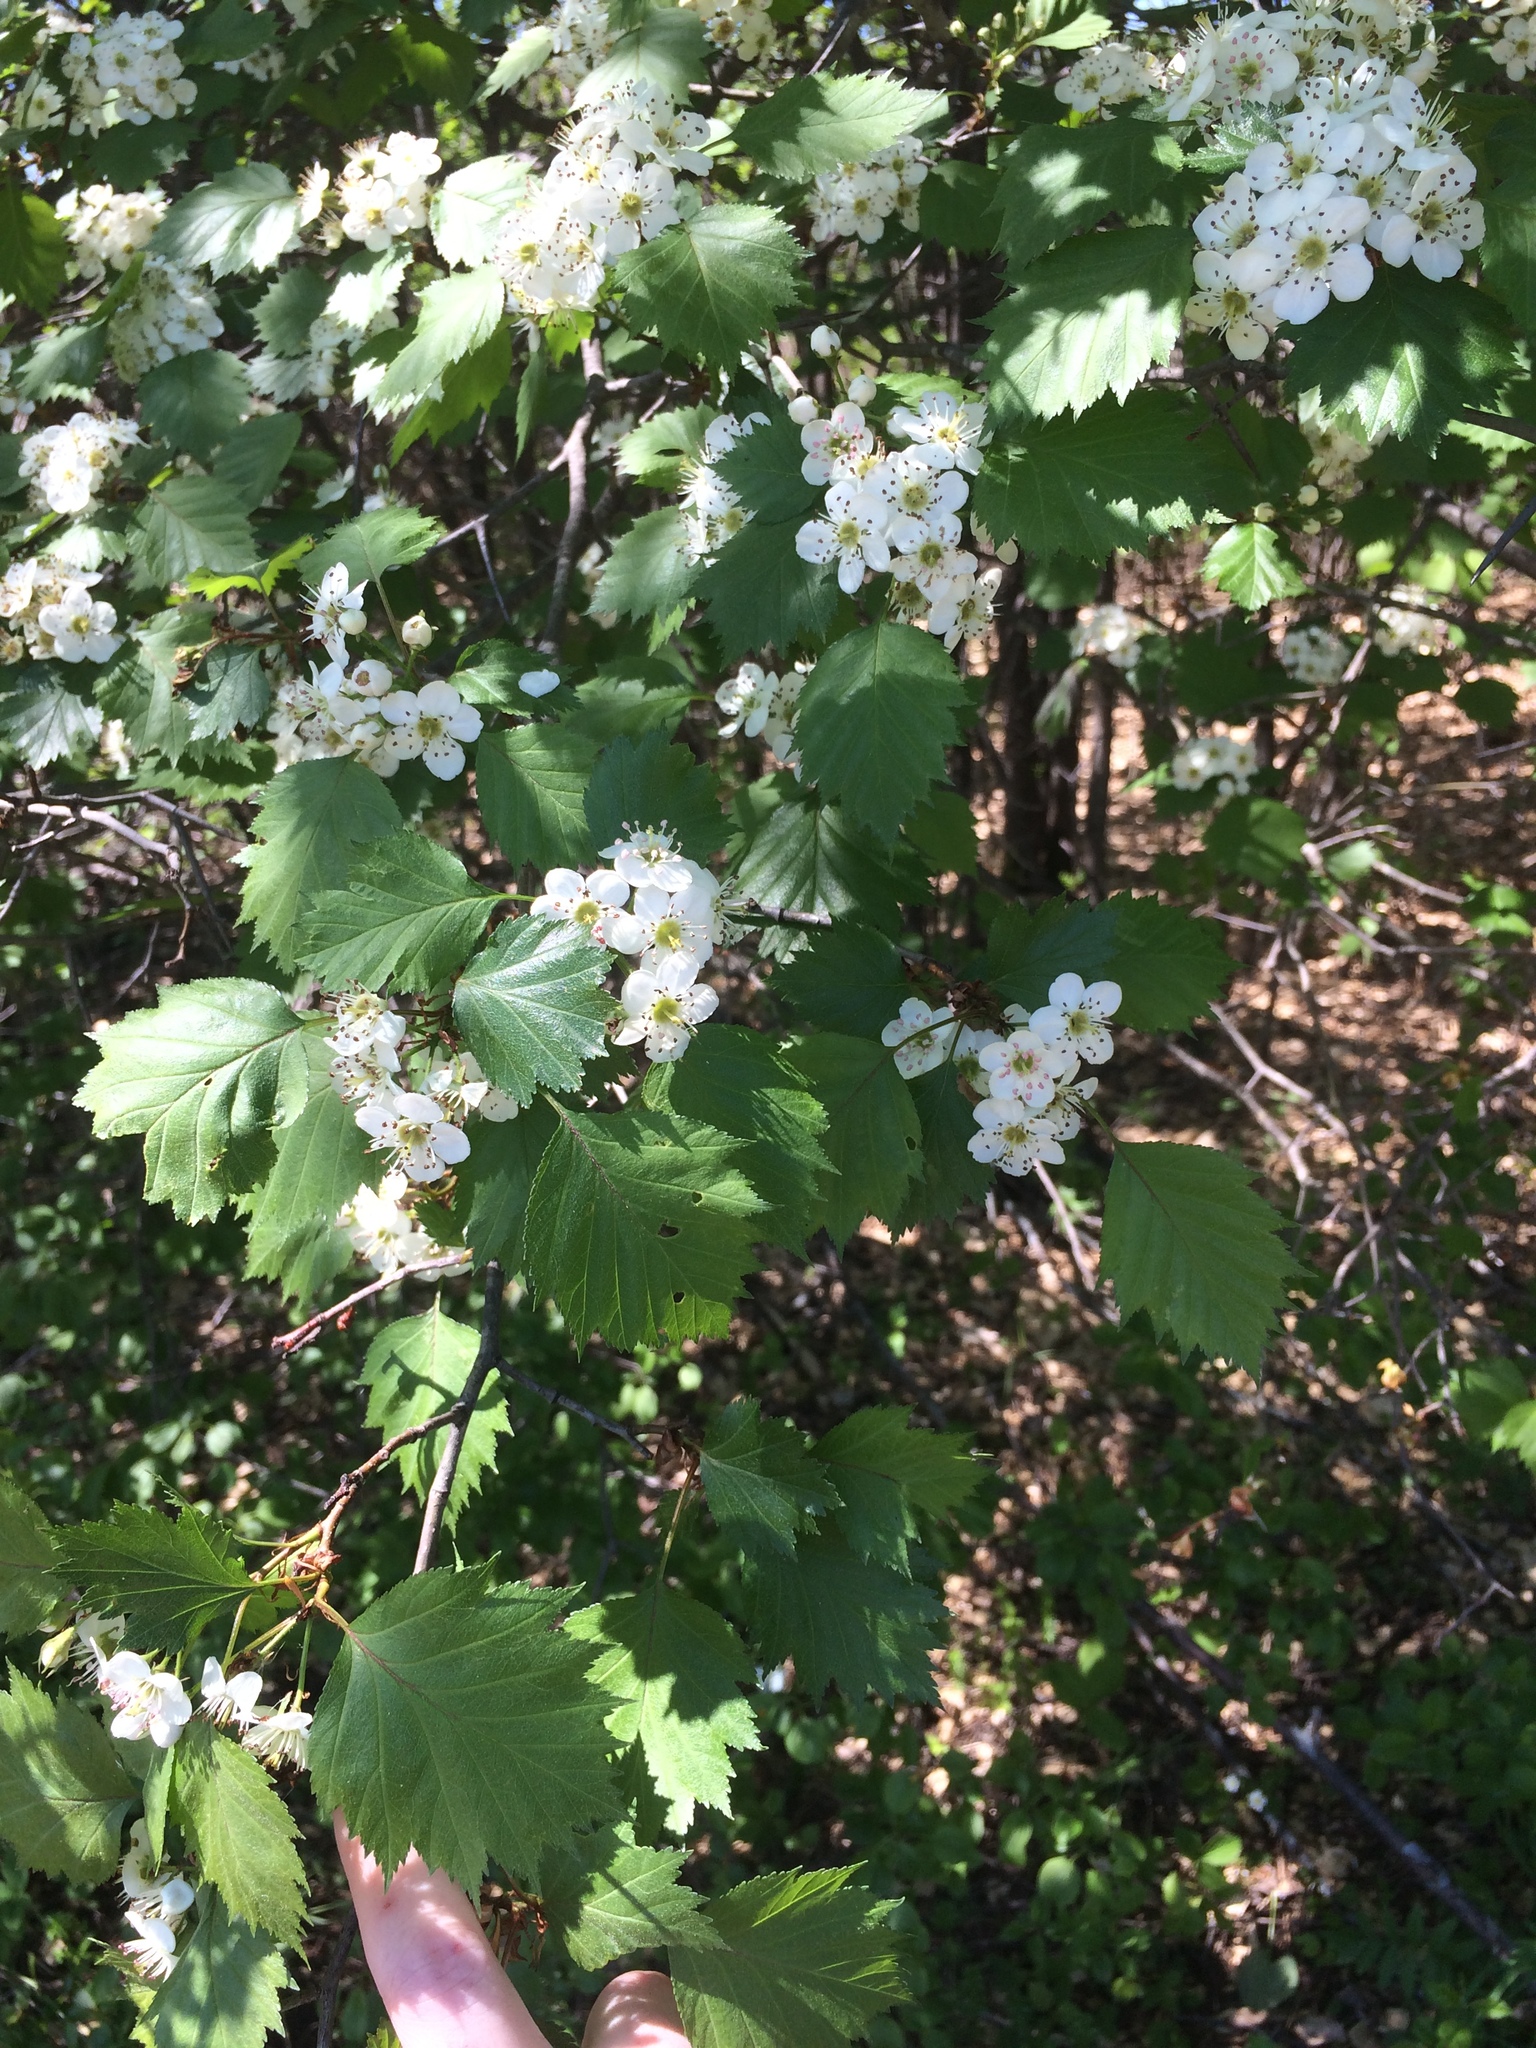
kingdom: Plantae
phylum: Tracheophyta
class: Magnoliopsida
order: Rosales
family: Rosaceae
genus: Crataegus
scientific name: Crataegus flabellata
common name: Bosc's hawthorn
